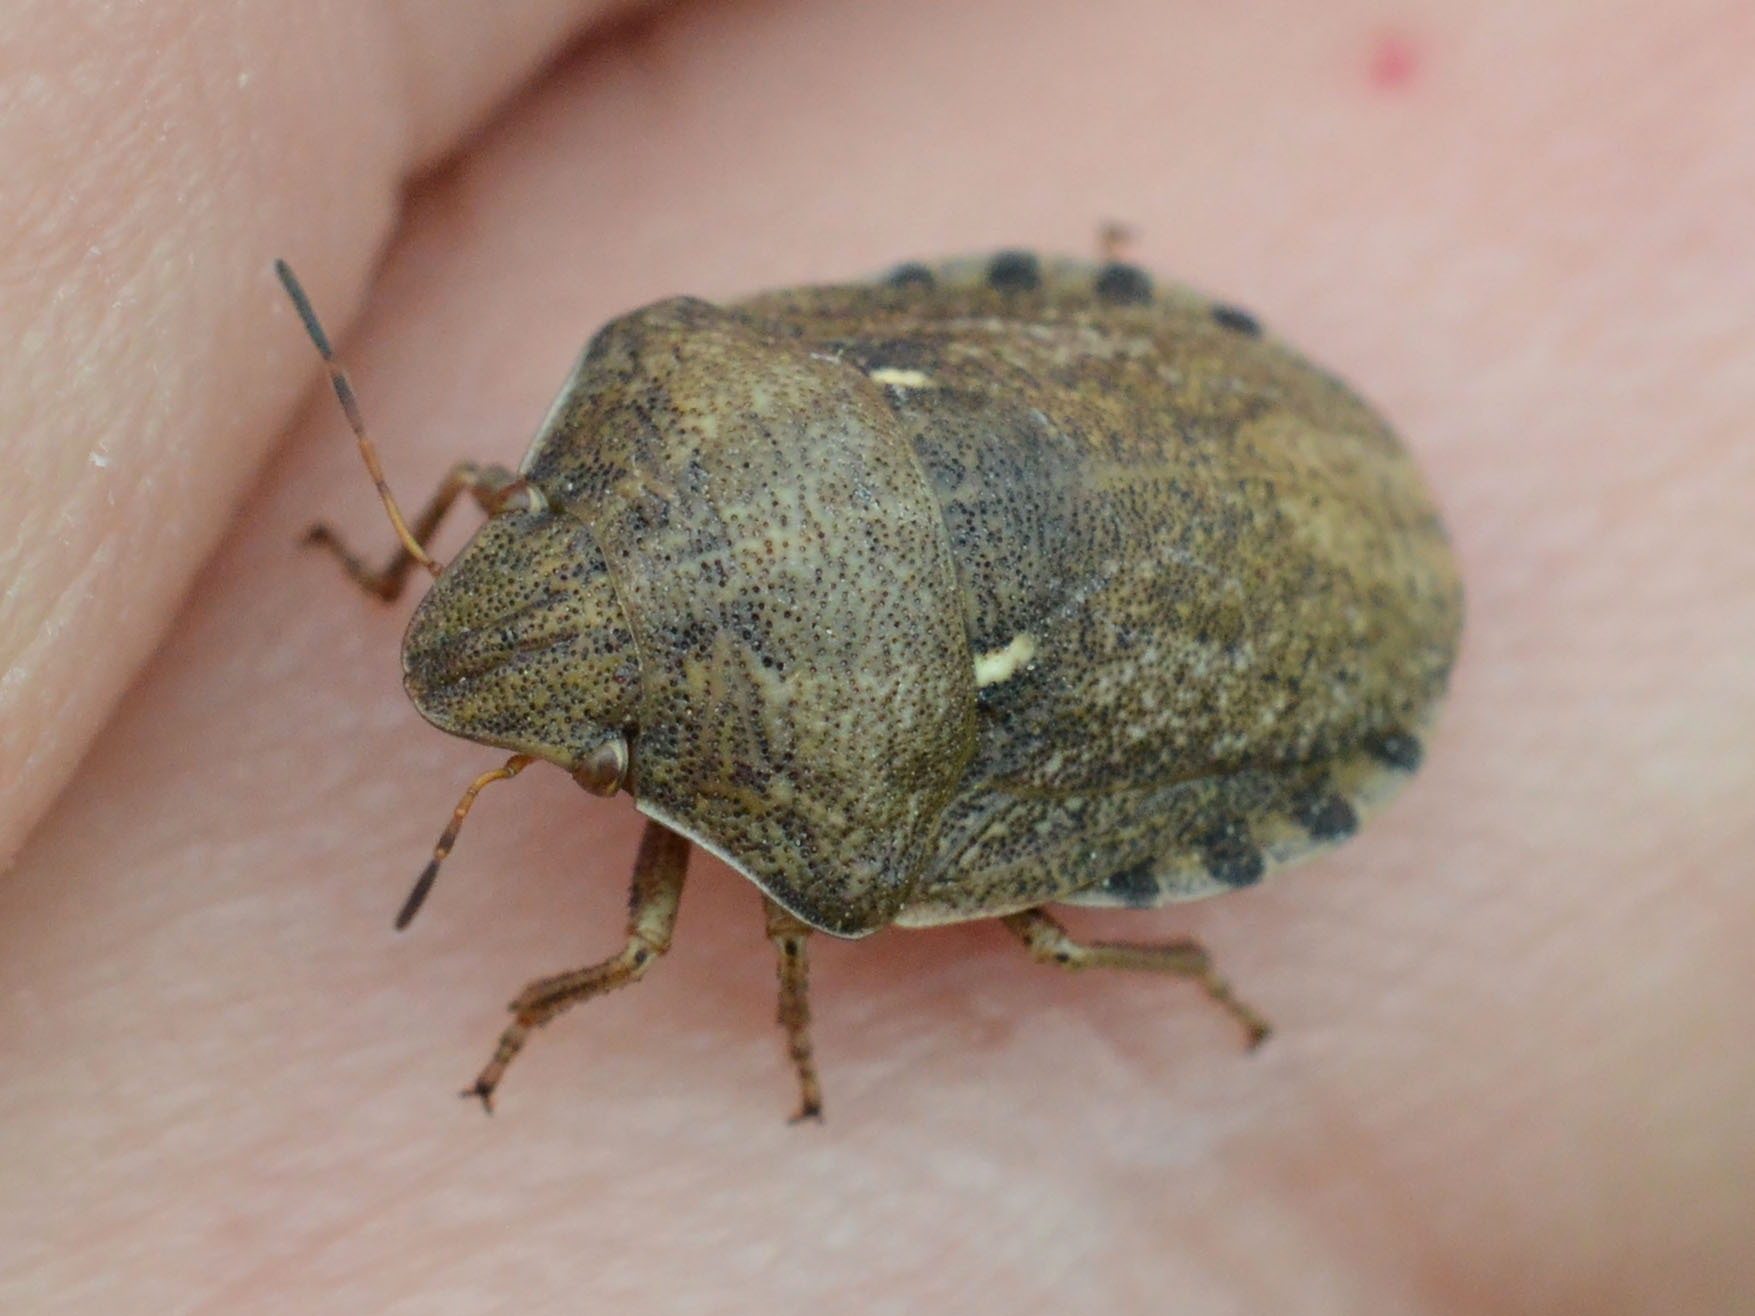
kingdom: Animalia
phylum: Arthropoda
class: Insecta
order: Hemiptera
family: Scutelleridae
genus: Eurygaster
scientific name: Eurygaster maura
